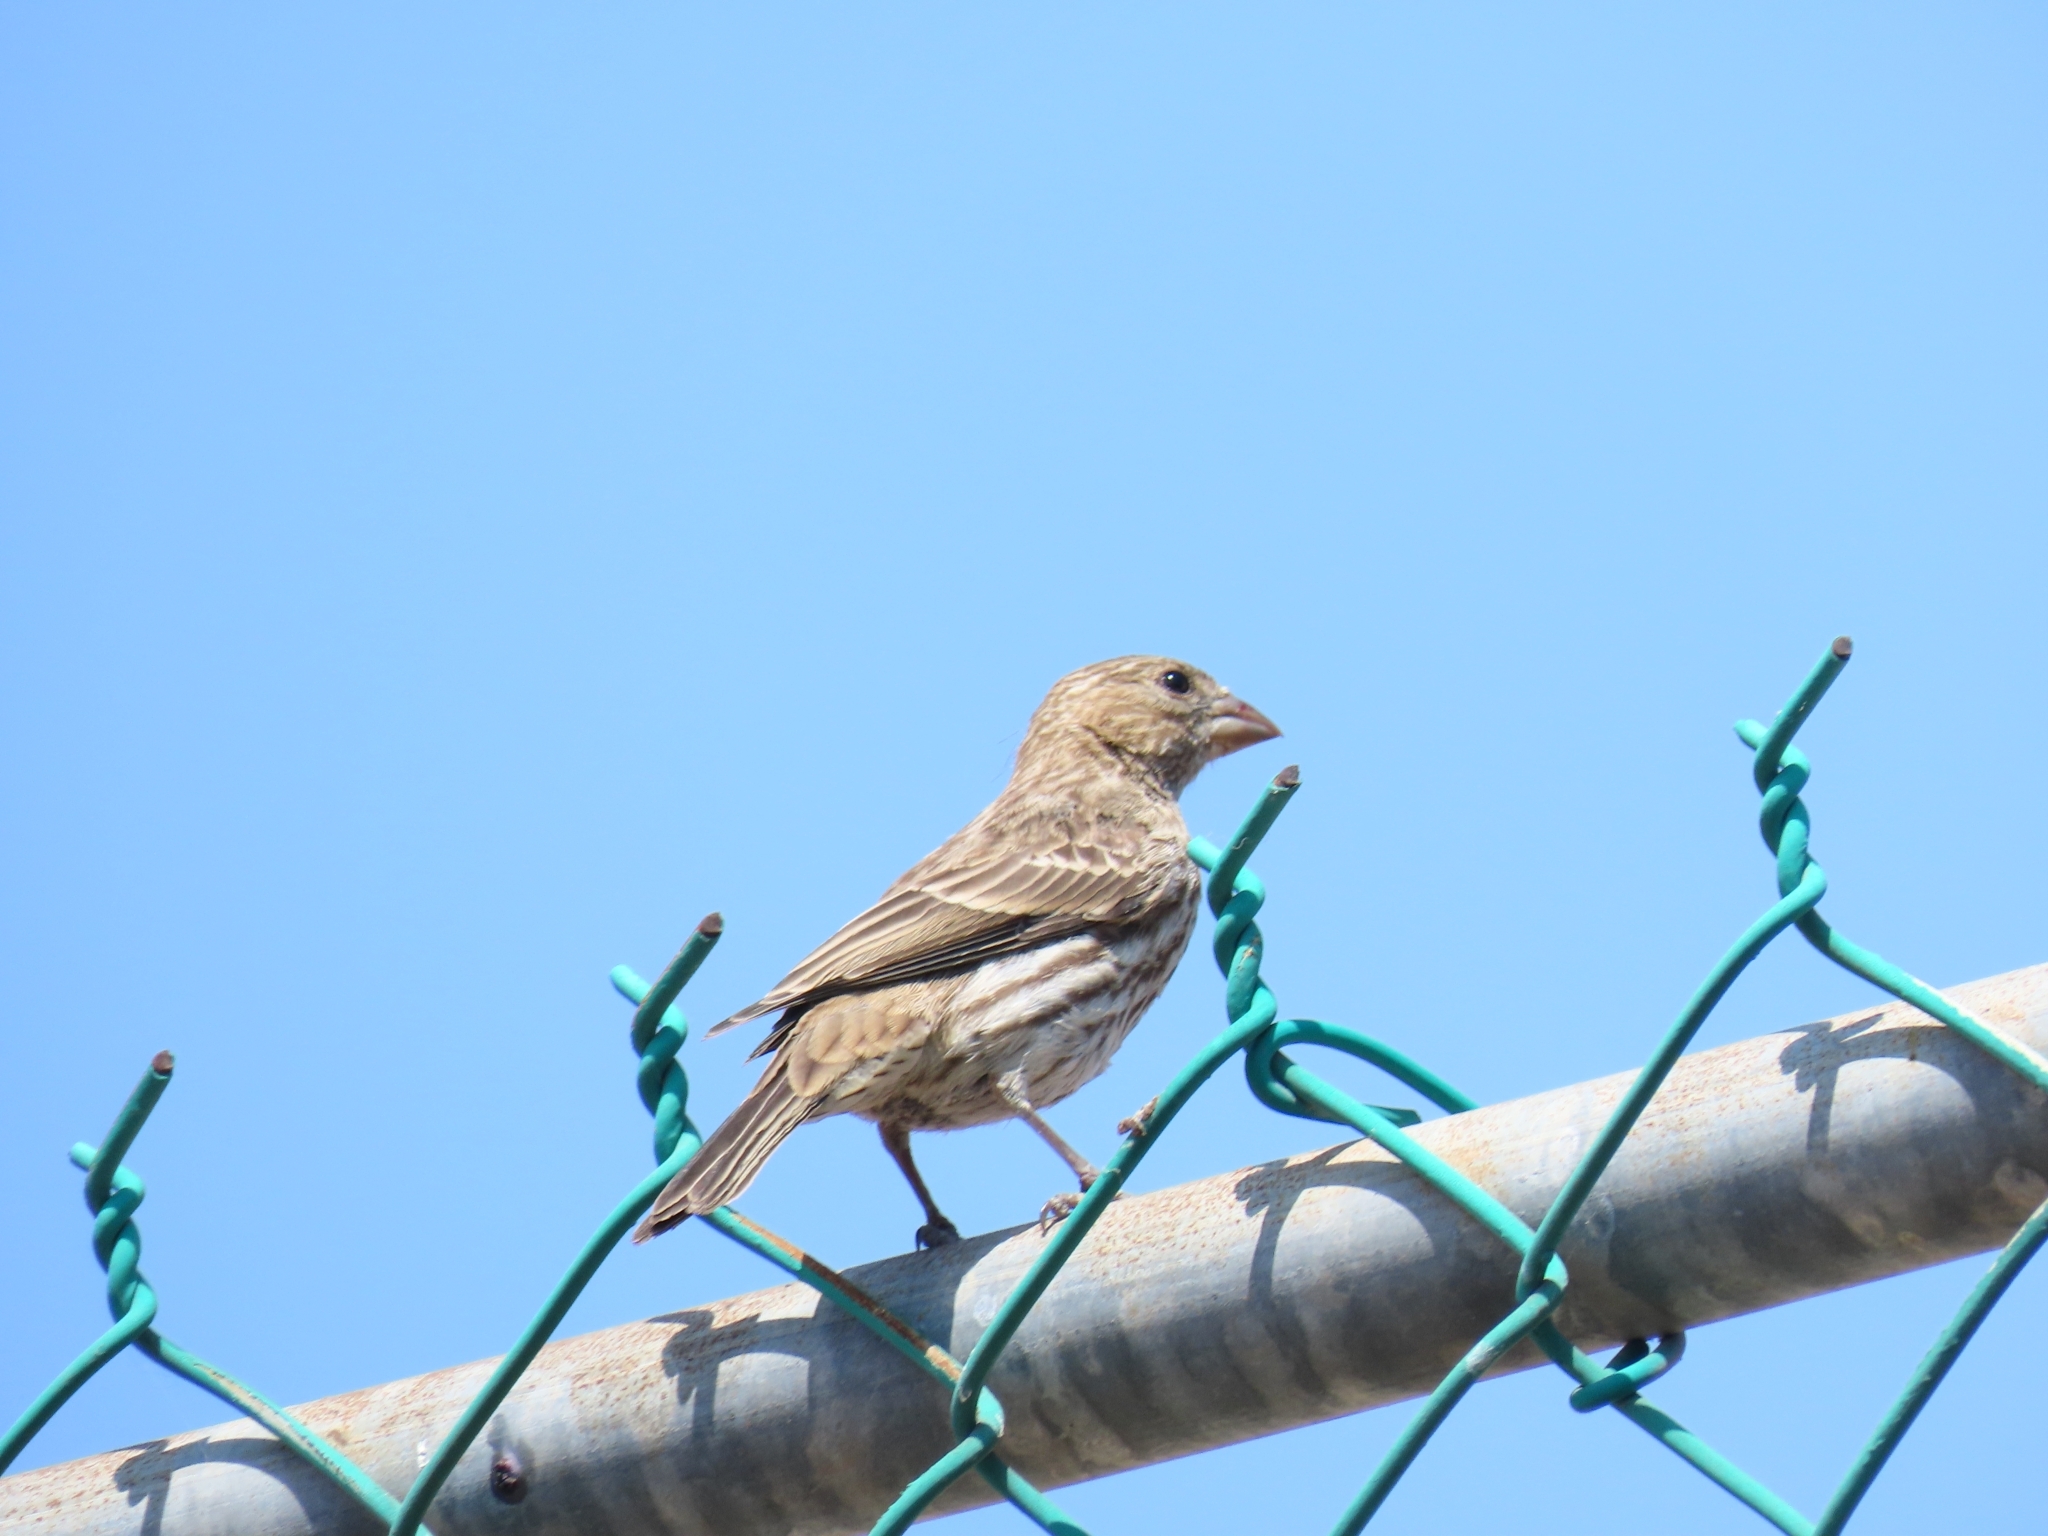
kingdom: Animalia
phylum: Chordata
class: Aves
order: Passeriformes
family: Fringillidae
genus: Haemorhous
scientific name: Haemorhous mexicanus
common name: House finch
